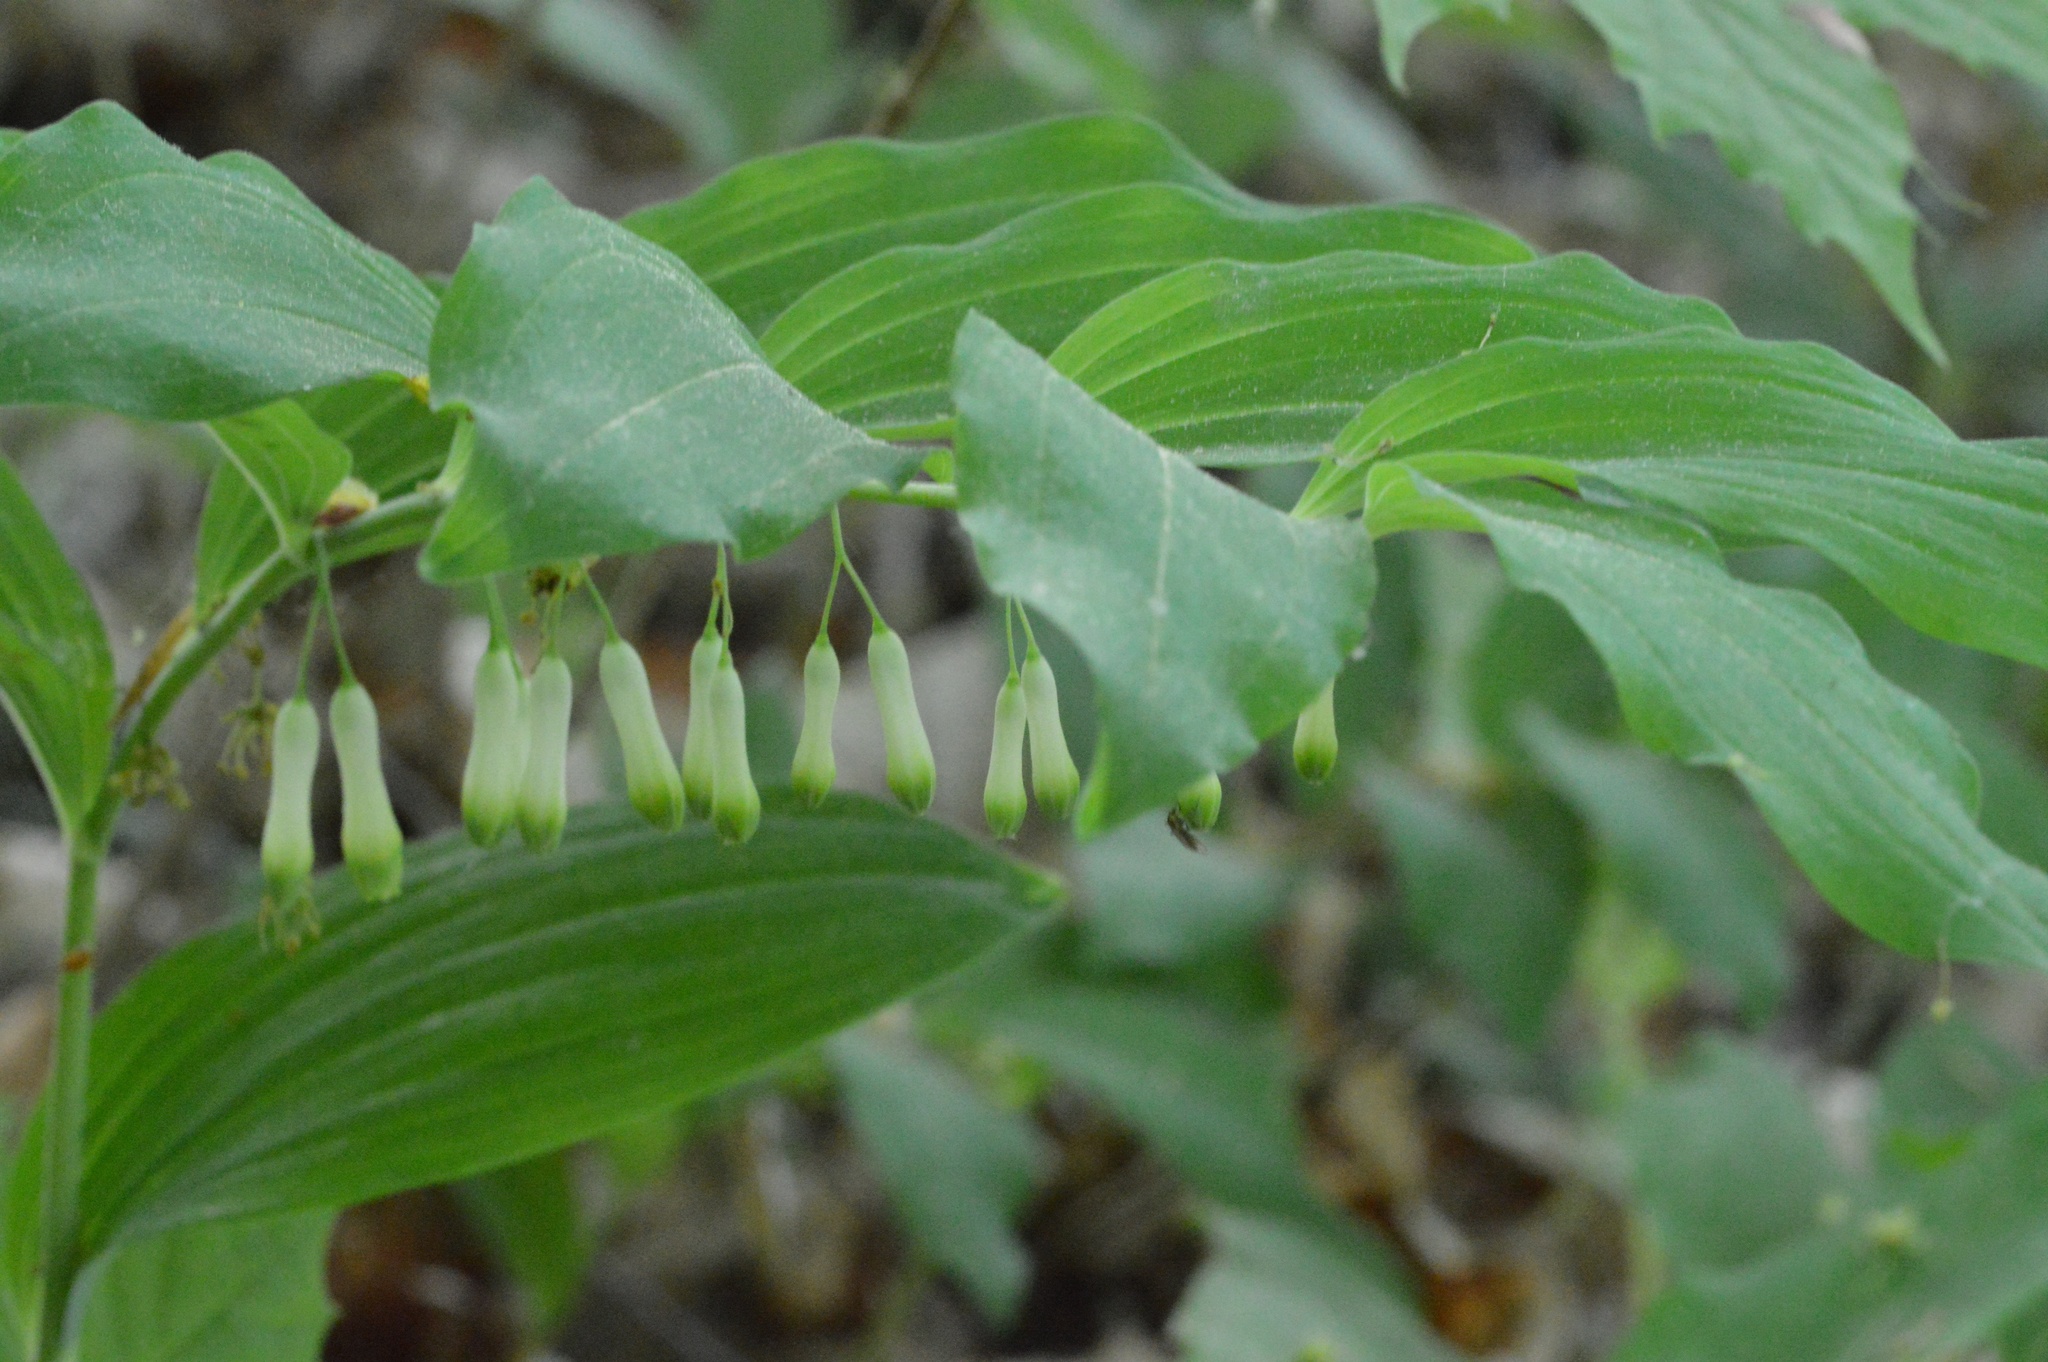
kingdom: Plantae
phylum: Tracheophyta
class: Liliopsida
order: Asparagales
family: Asparagaceae
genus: Polygonatum
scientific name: Polygonatum multiflorum
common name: Solomon's-seal
